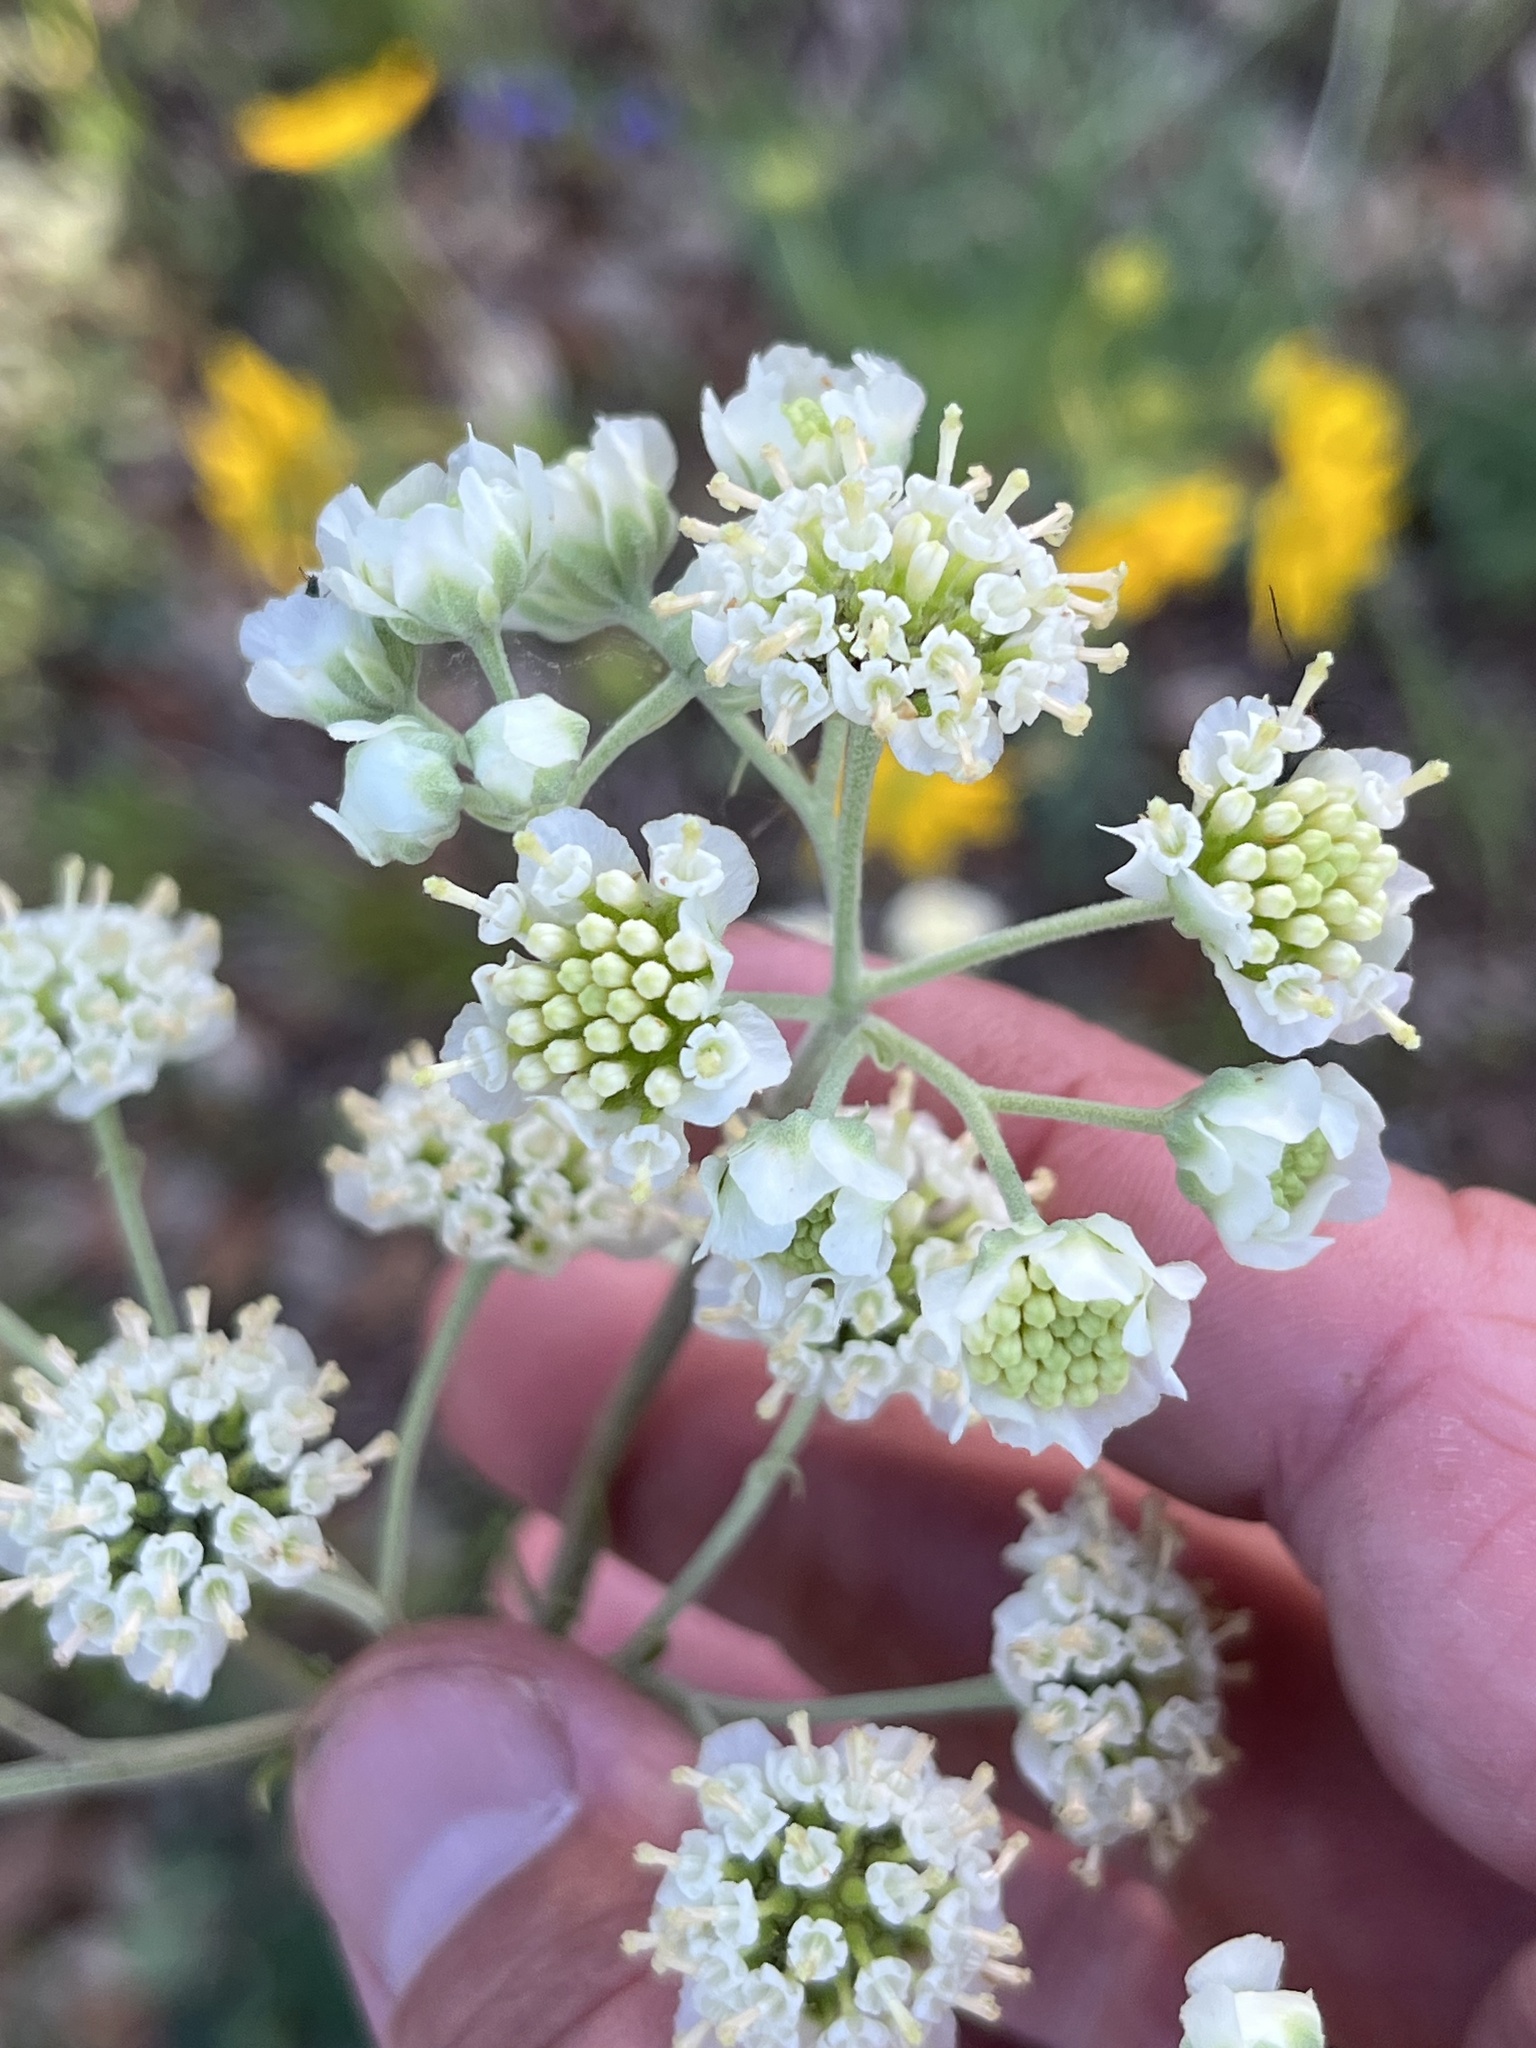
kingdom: Plantae
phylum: Tracheophyta
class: Magnoliopsida
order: Asterales
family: Asteraceae
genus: Hymenopappus
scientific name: Hymenopappus scabiosaeus
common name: Carolina woollywhite
